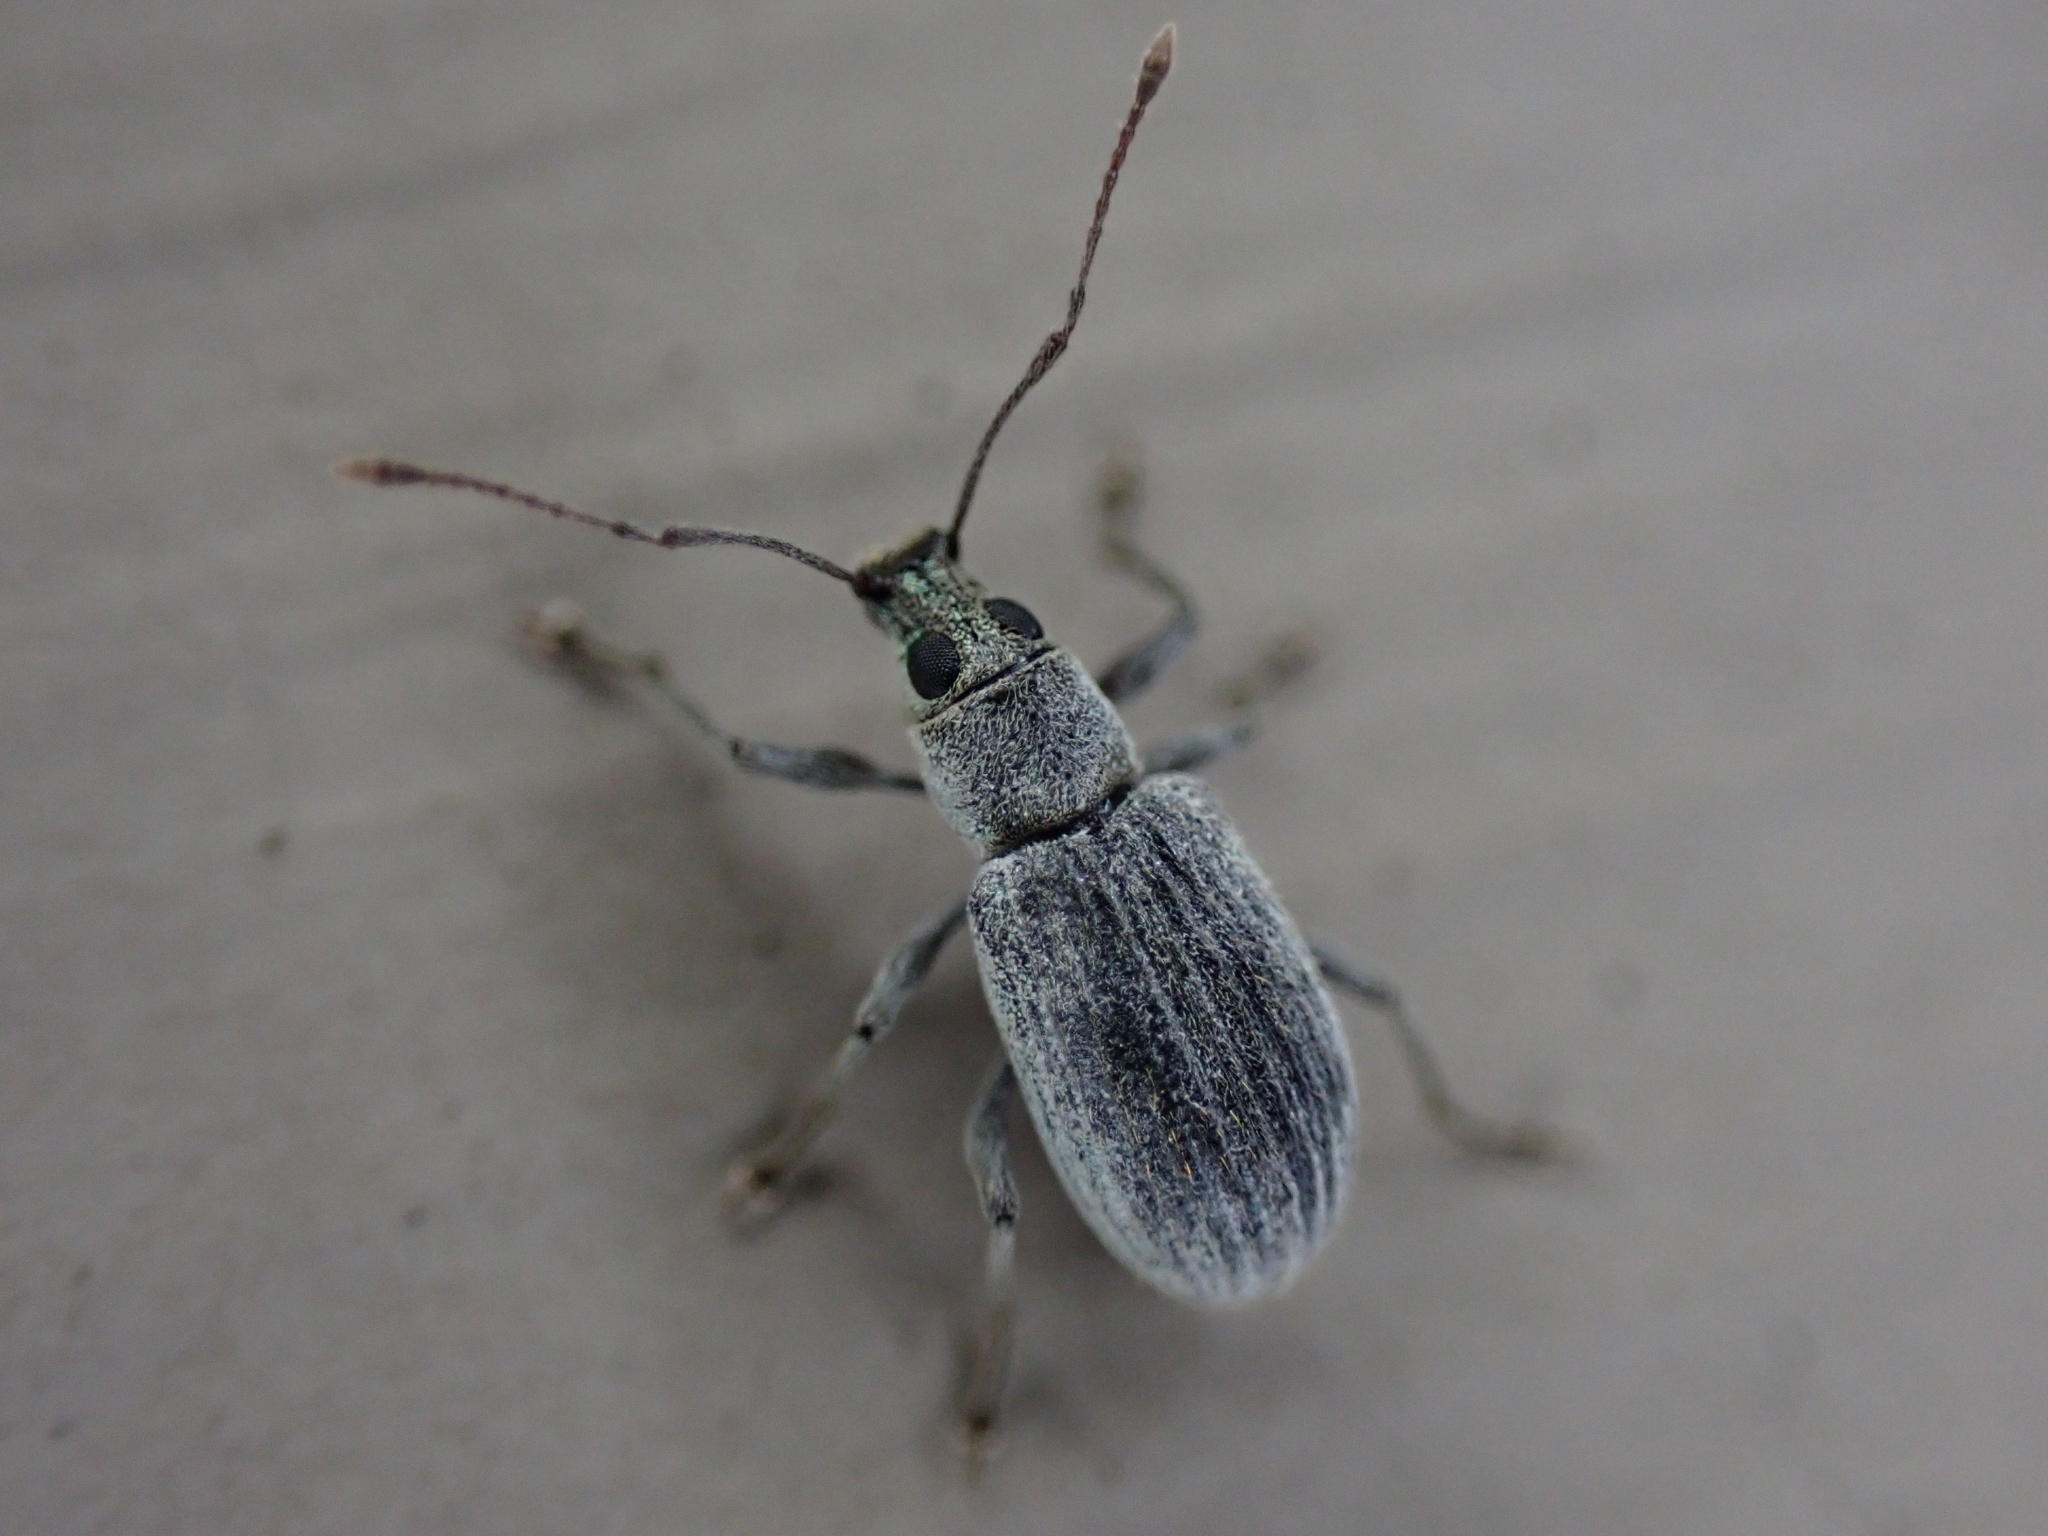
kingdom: Animalia
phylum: Arthropoda
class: Insecta
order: Coleoptera
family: Curculionidae
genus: Cyrtepistomus
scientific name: Cyrtepistomus castaneus
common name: Weevil
